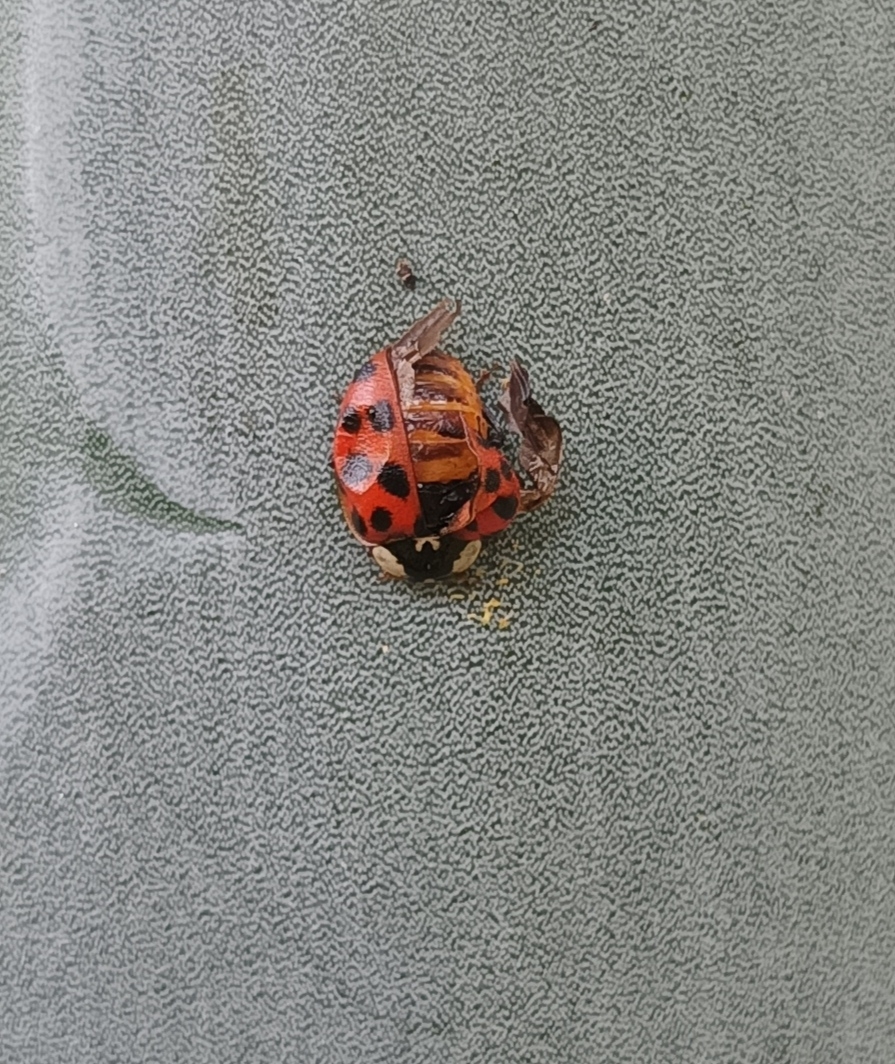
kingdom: Animalia
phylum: Arthropoda
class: Insecta
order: Coleoptera
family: Coccinellidae
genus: Harmonia
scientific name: Harmonia axyridis
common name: Harlequin ladybird
